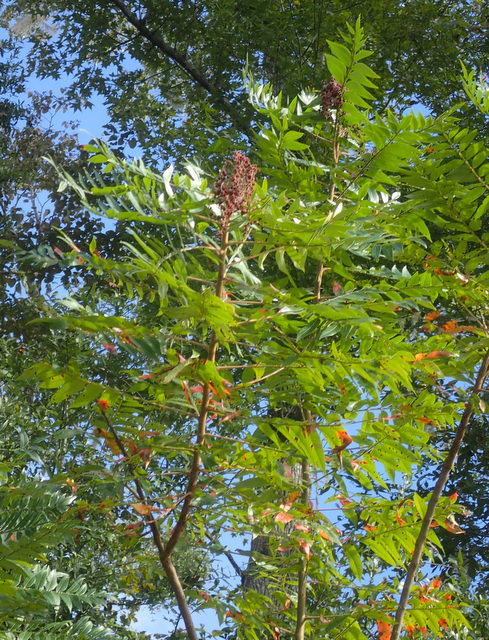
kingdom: Plantae
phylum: Tracheophyta
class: Magnoliopsida
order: Sapindales
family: Anacardiaceae
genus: Rhus
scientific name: Rhus copallina
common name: Shining sumac
